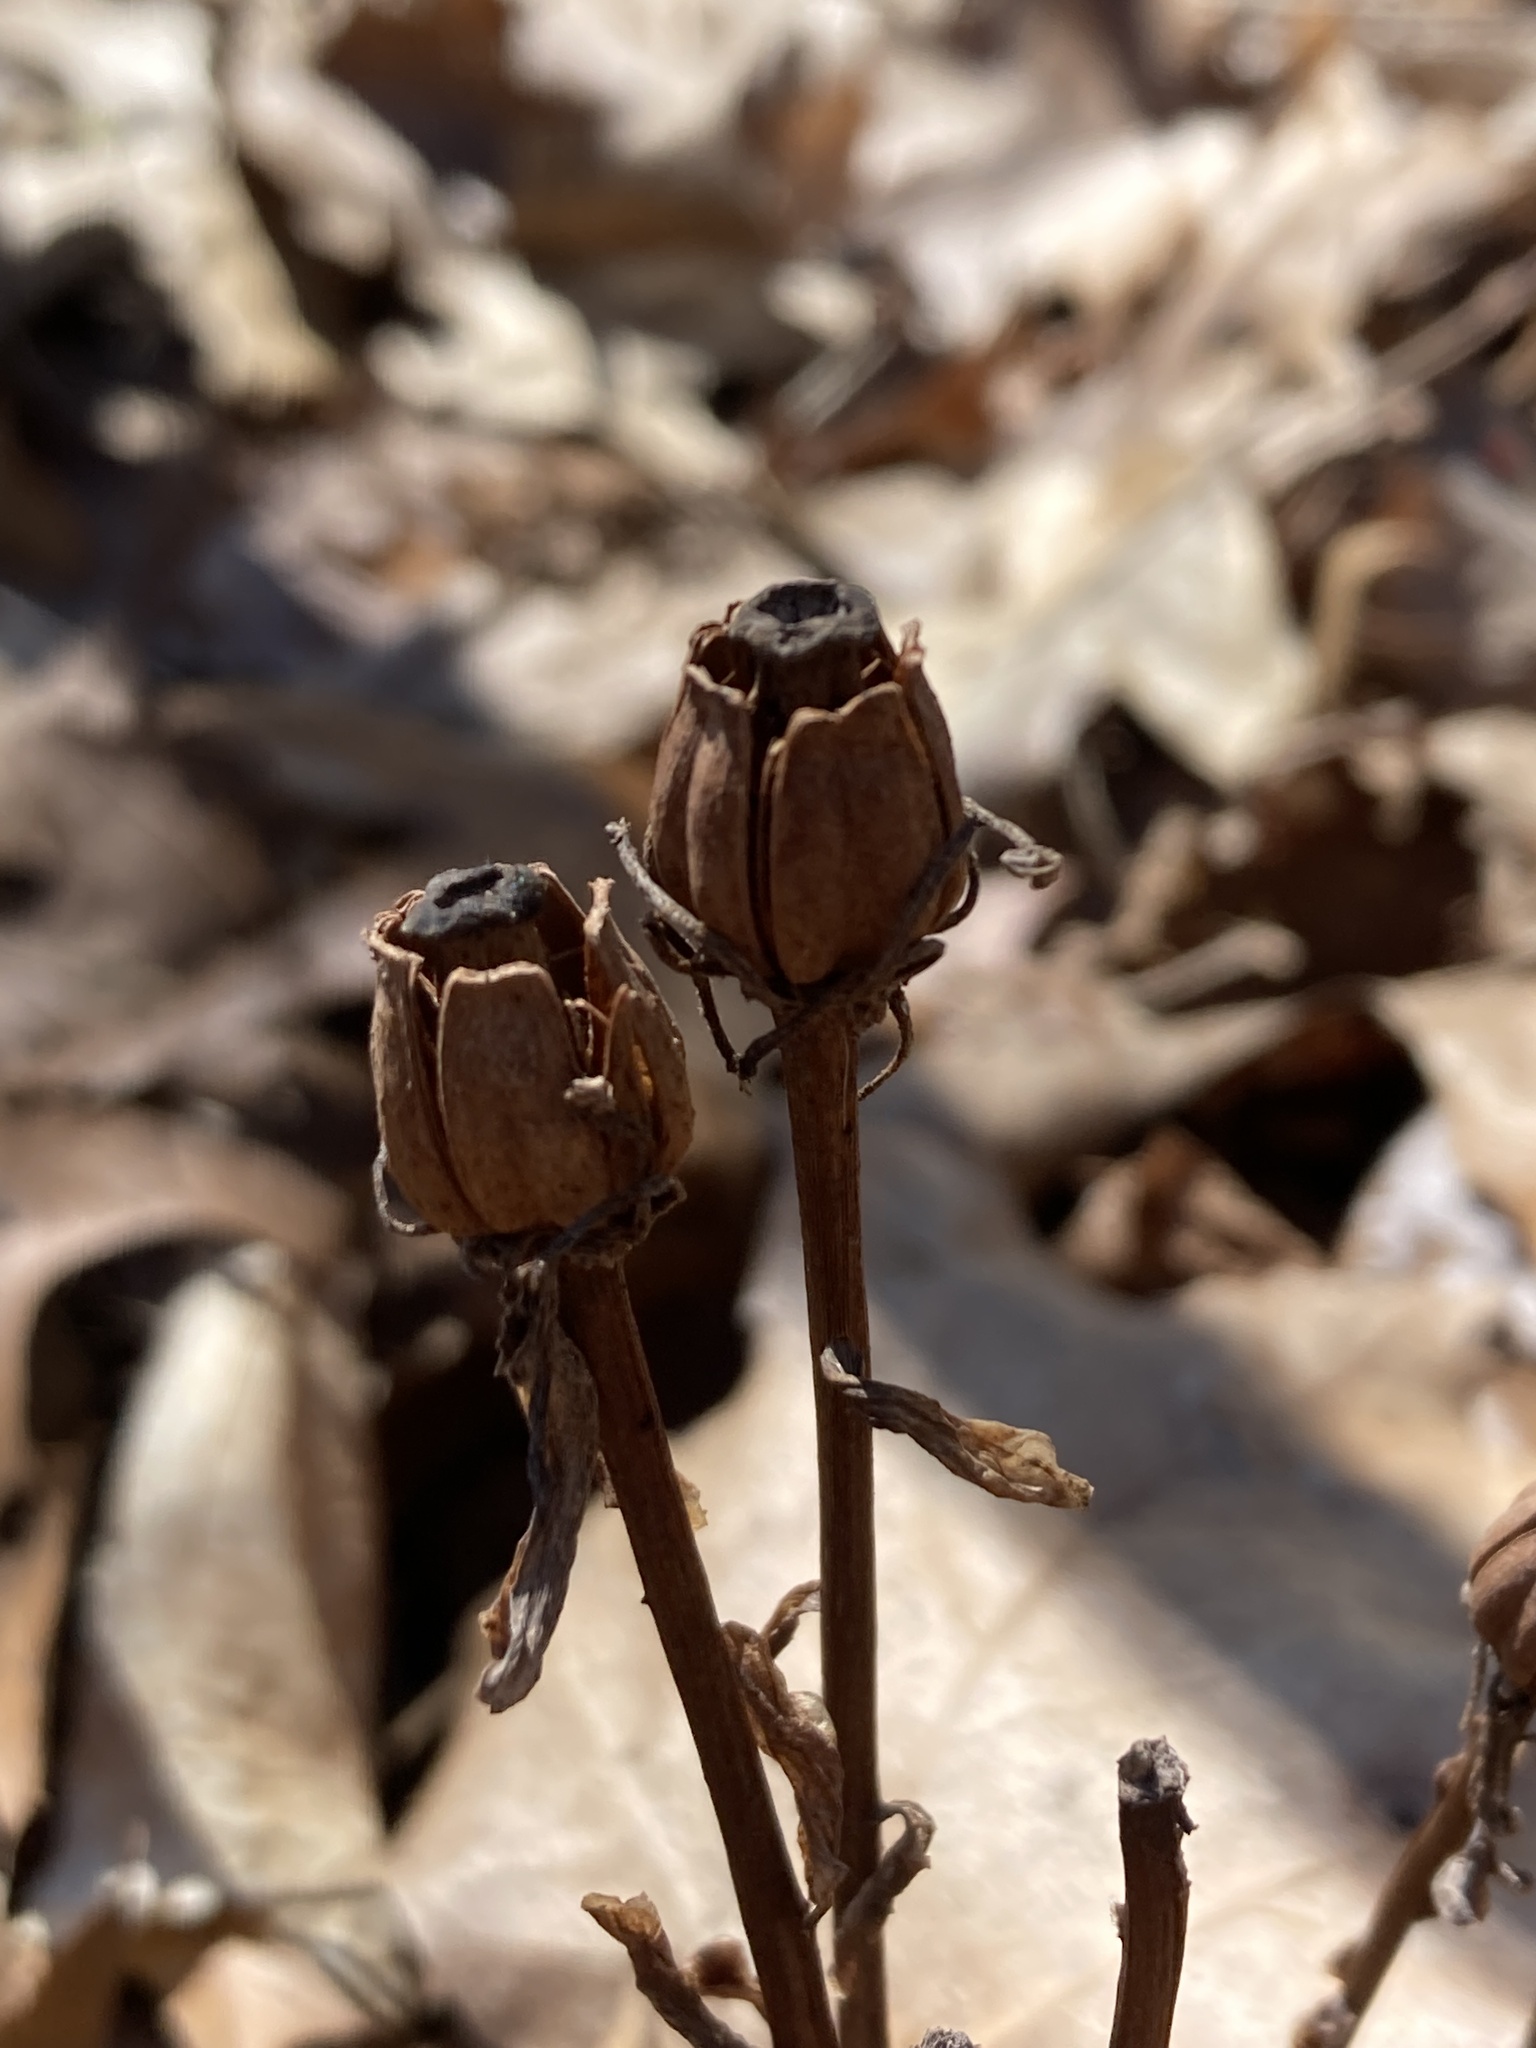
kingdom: Plantae
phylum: Tracheophyta
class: Magnoliopsida
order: Ericales
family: Ericaceae
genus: Monotropa
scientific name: Monotropa uniflora
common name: Convulsion root
